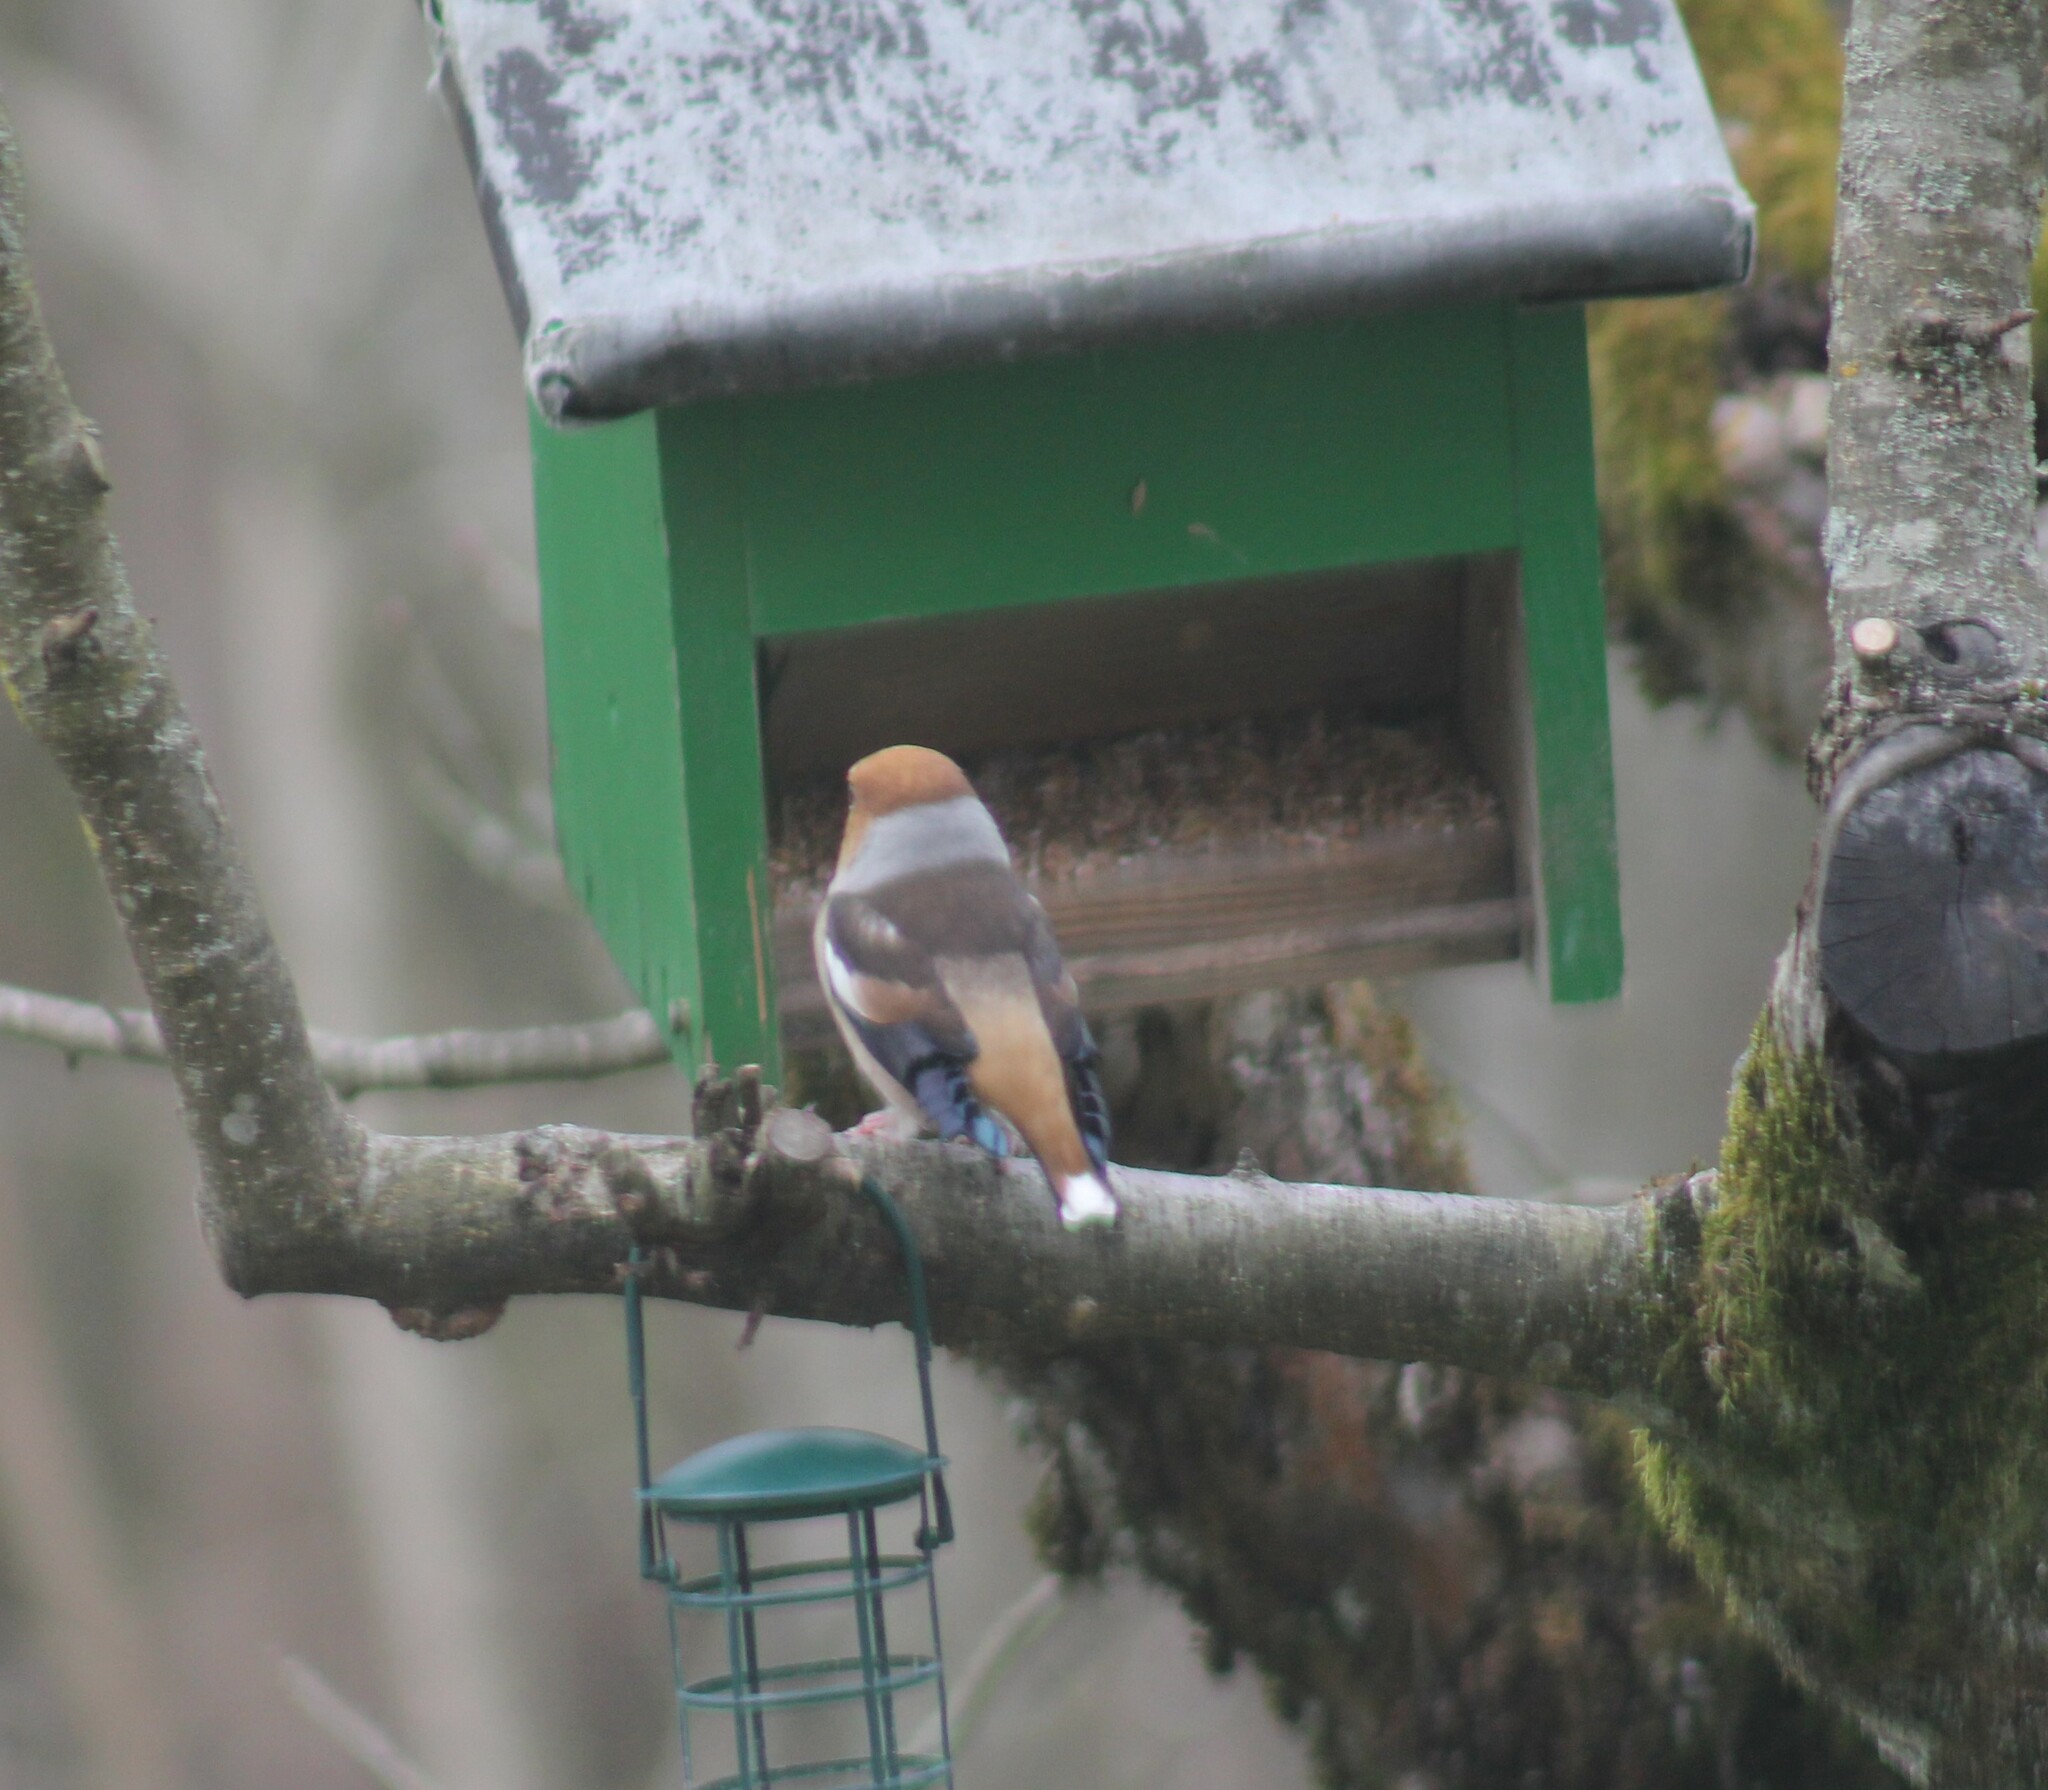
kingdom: Animalia
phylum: Chordata
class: Aves
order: Passeriformes
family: Fringillidae
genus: Coccothraustes
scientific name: Coccothraustes coccothraustes
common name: Hawfinch
